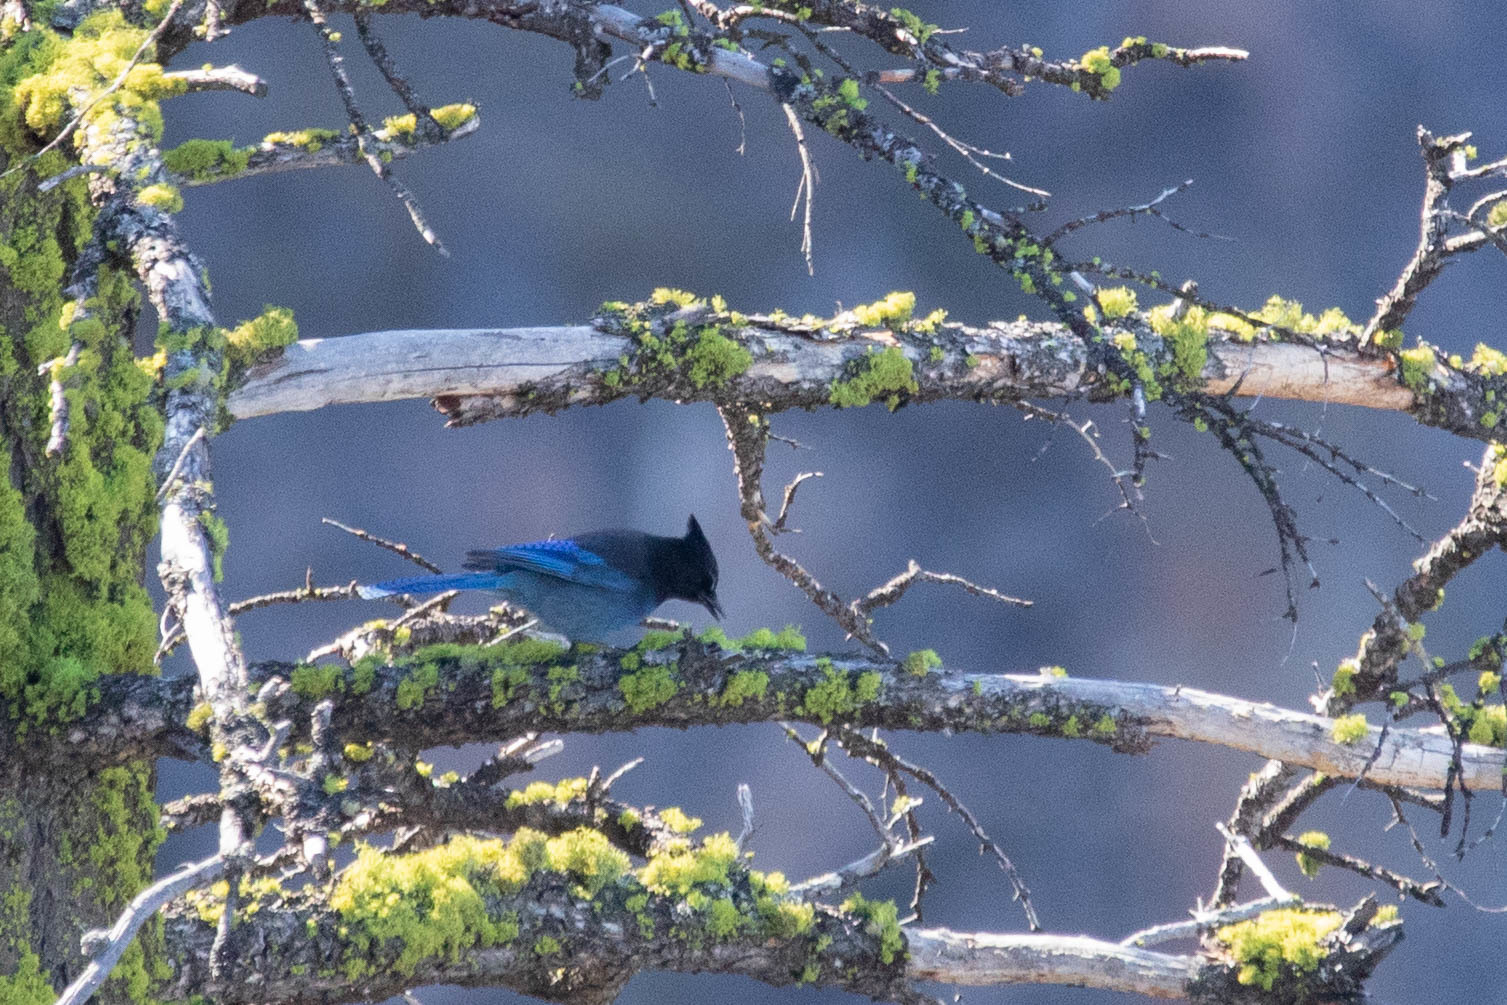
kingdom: Animalia
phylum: Chordata
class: Aves
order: Passeriformes
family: Corvidae
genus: Cyanocitta
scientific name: Cyanocitta stelleri
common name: Steller's jay
